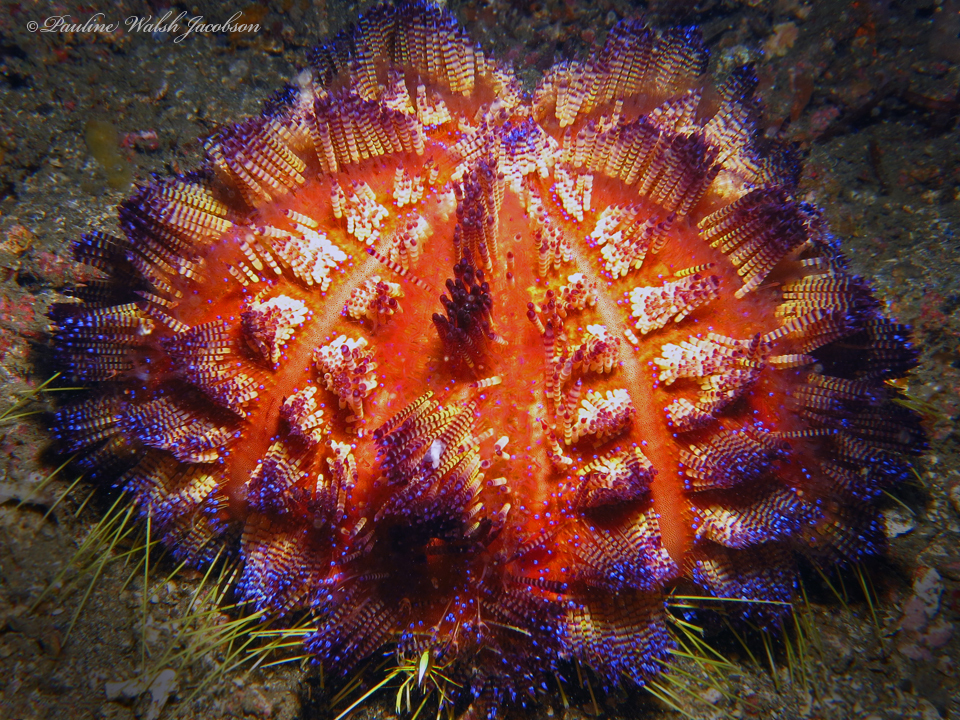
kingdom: Animalia
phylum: Echinodermata
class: Echinoidea
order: Echinothurioida
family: Echinothuriidae
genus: Asthenosoma
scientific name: Asthenosoma varium
